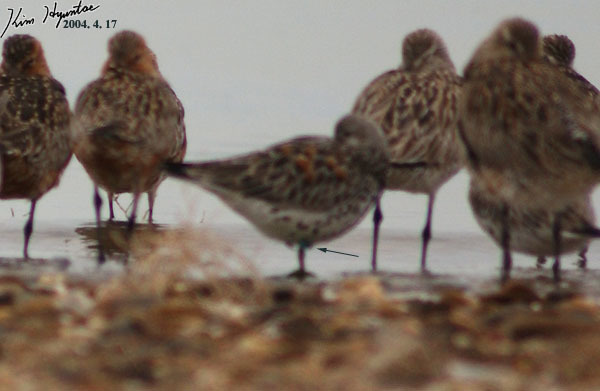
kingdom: Animalia
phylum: Chordata
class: Aves
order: Charadriiformes
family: Scolopacidae
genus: Calidris
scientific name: Calidris tenuirostris
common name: Great knot
